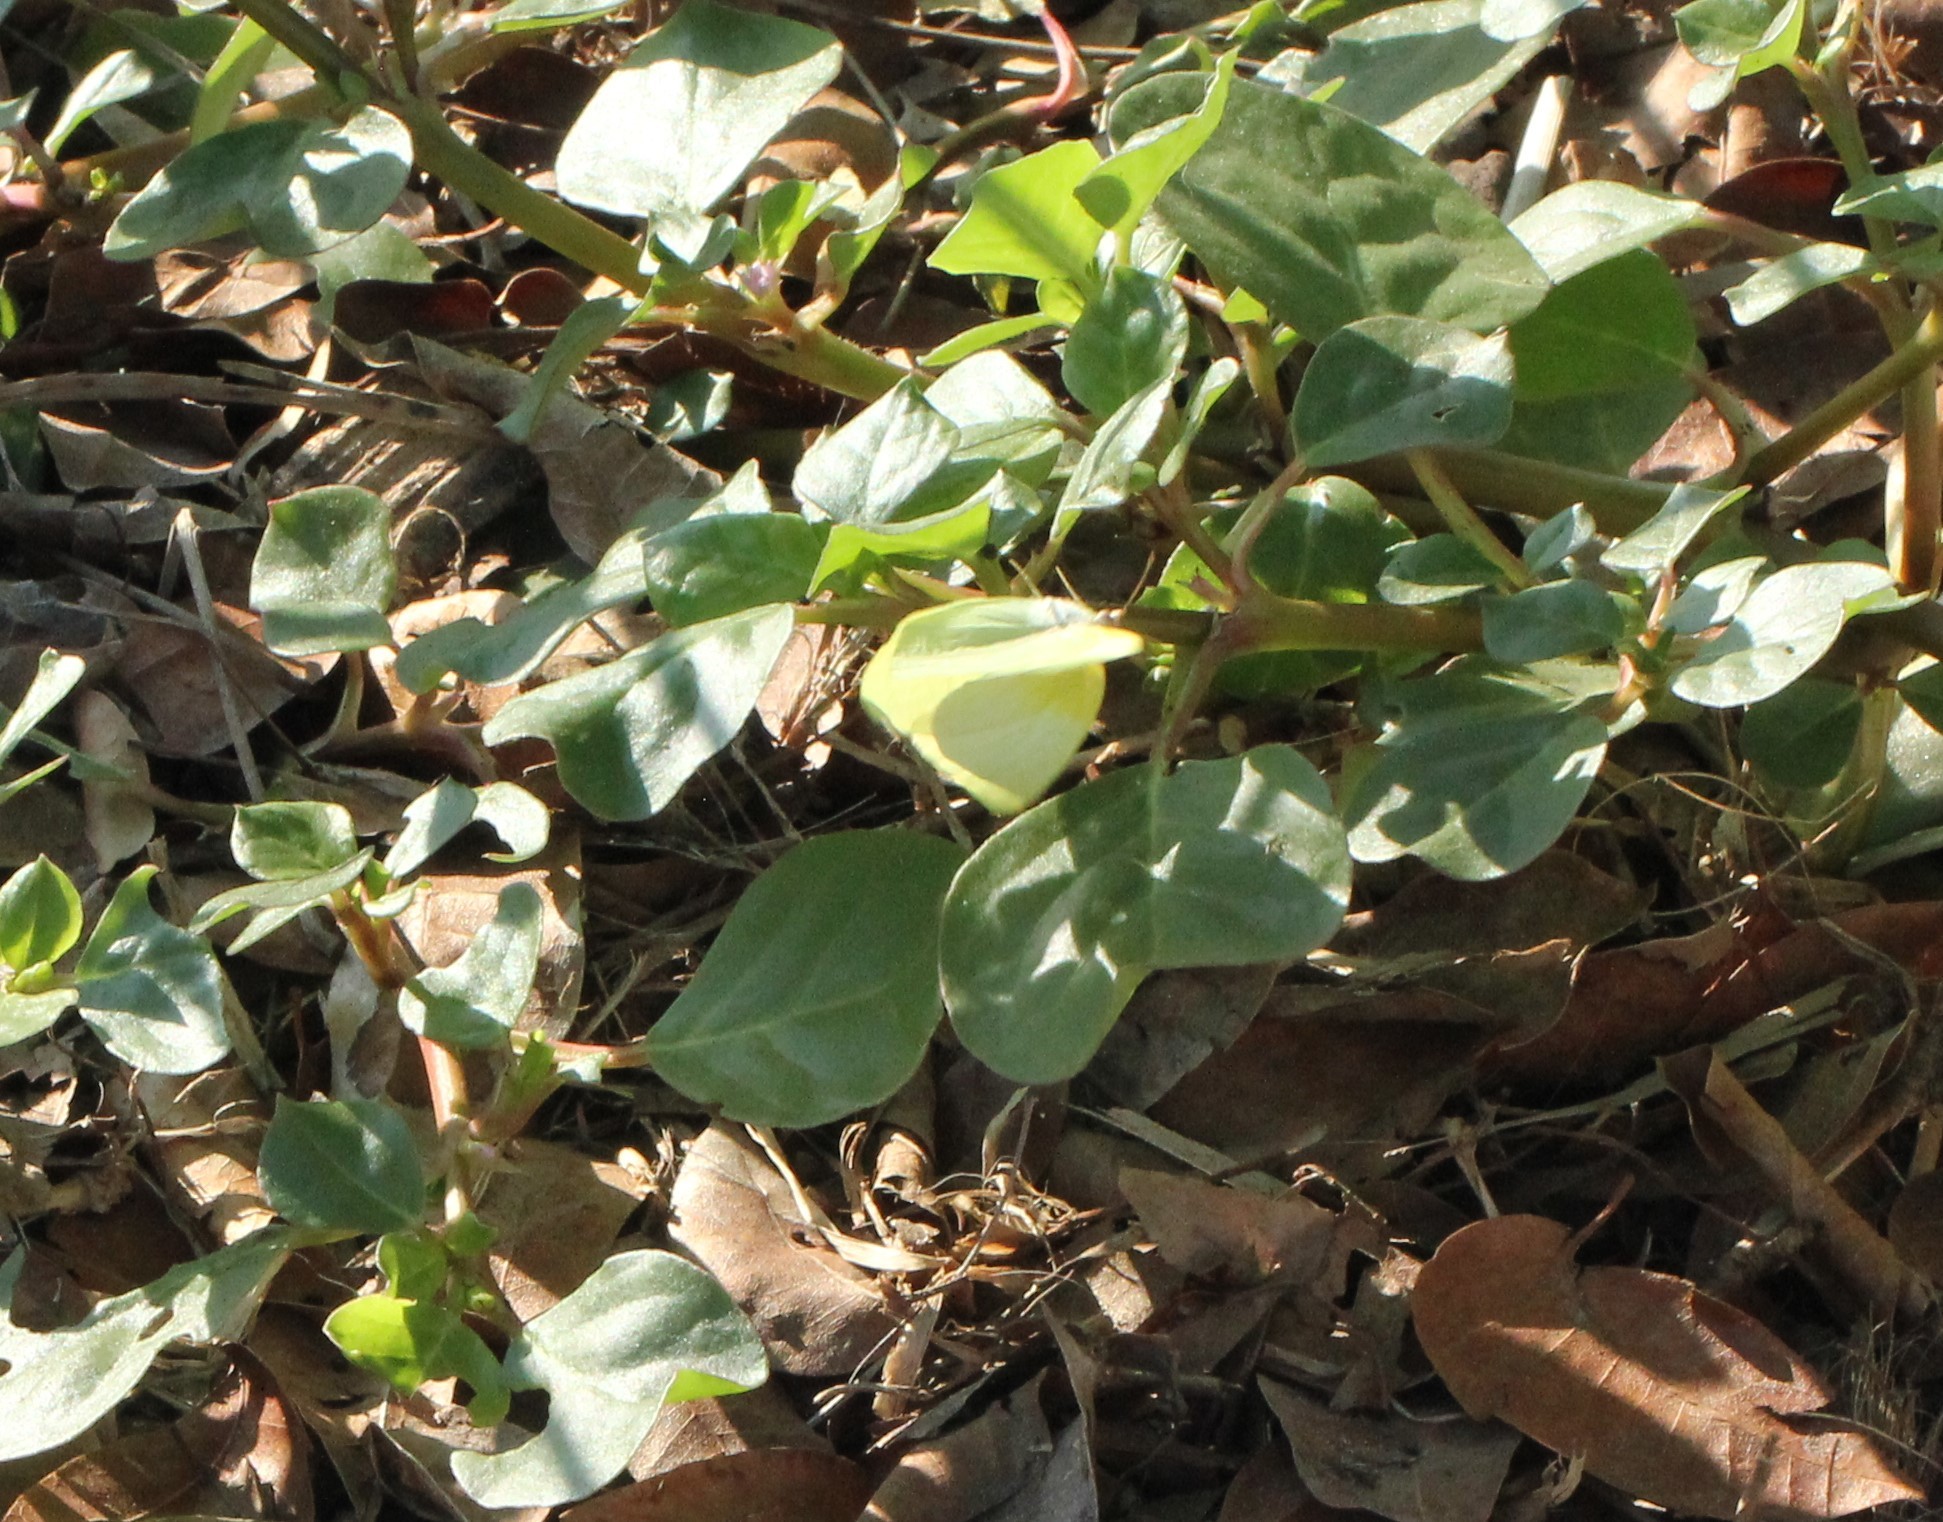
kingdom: Animalia
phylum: Arthropoda
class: Insecta
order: Lepidoptera
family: Pieridae
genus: Kricogonia
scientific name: Kricogonia lyside
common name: Guayacan sulphur,
